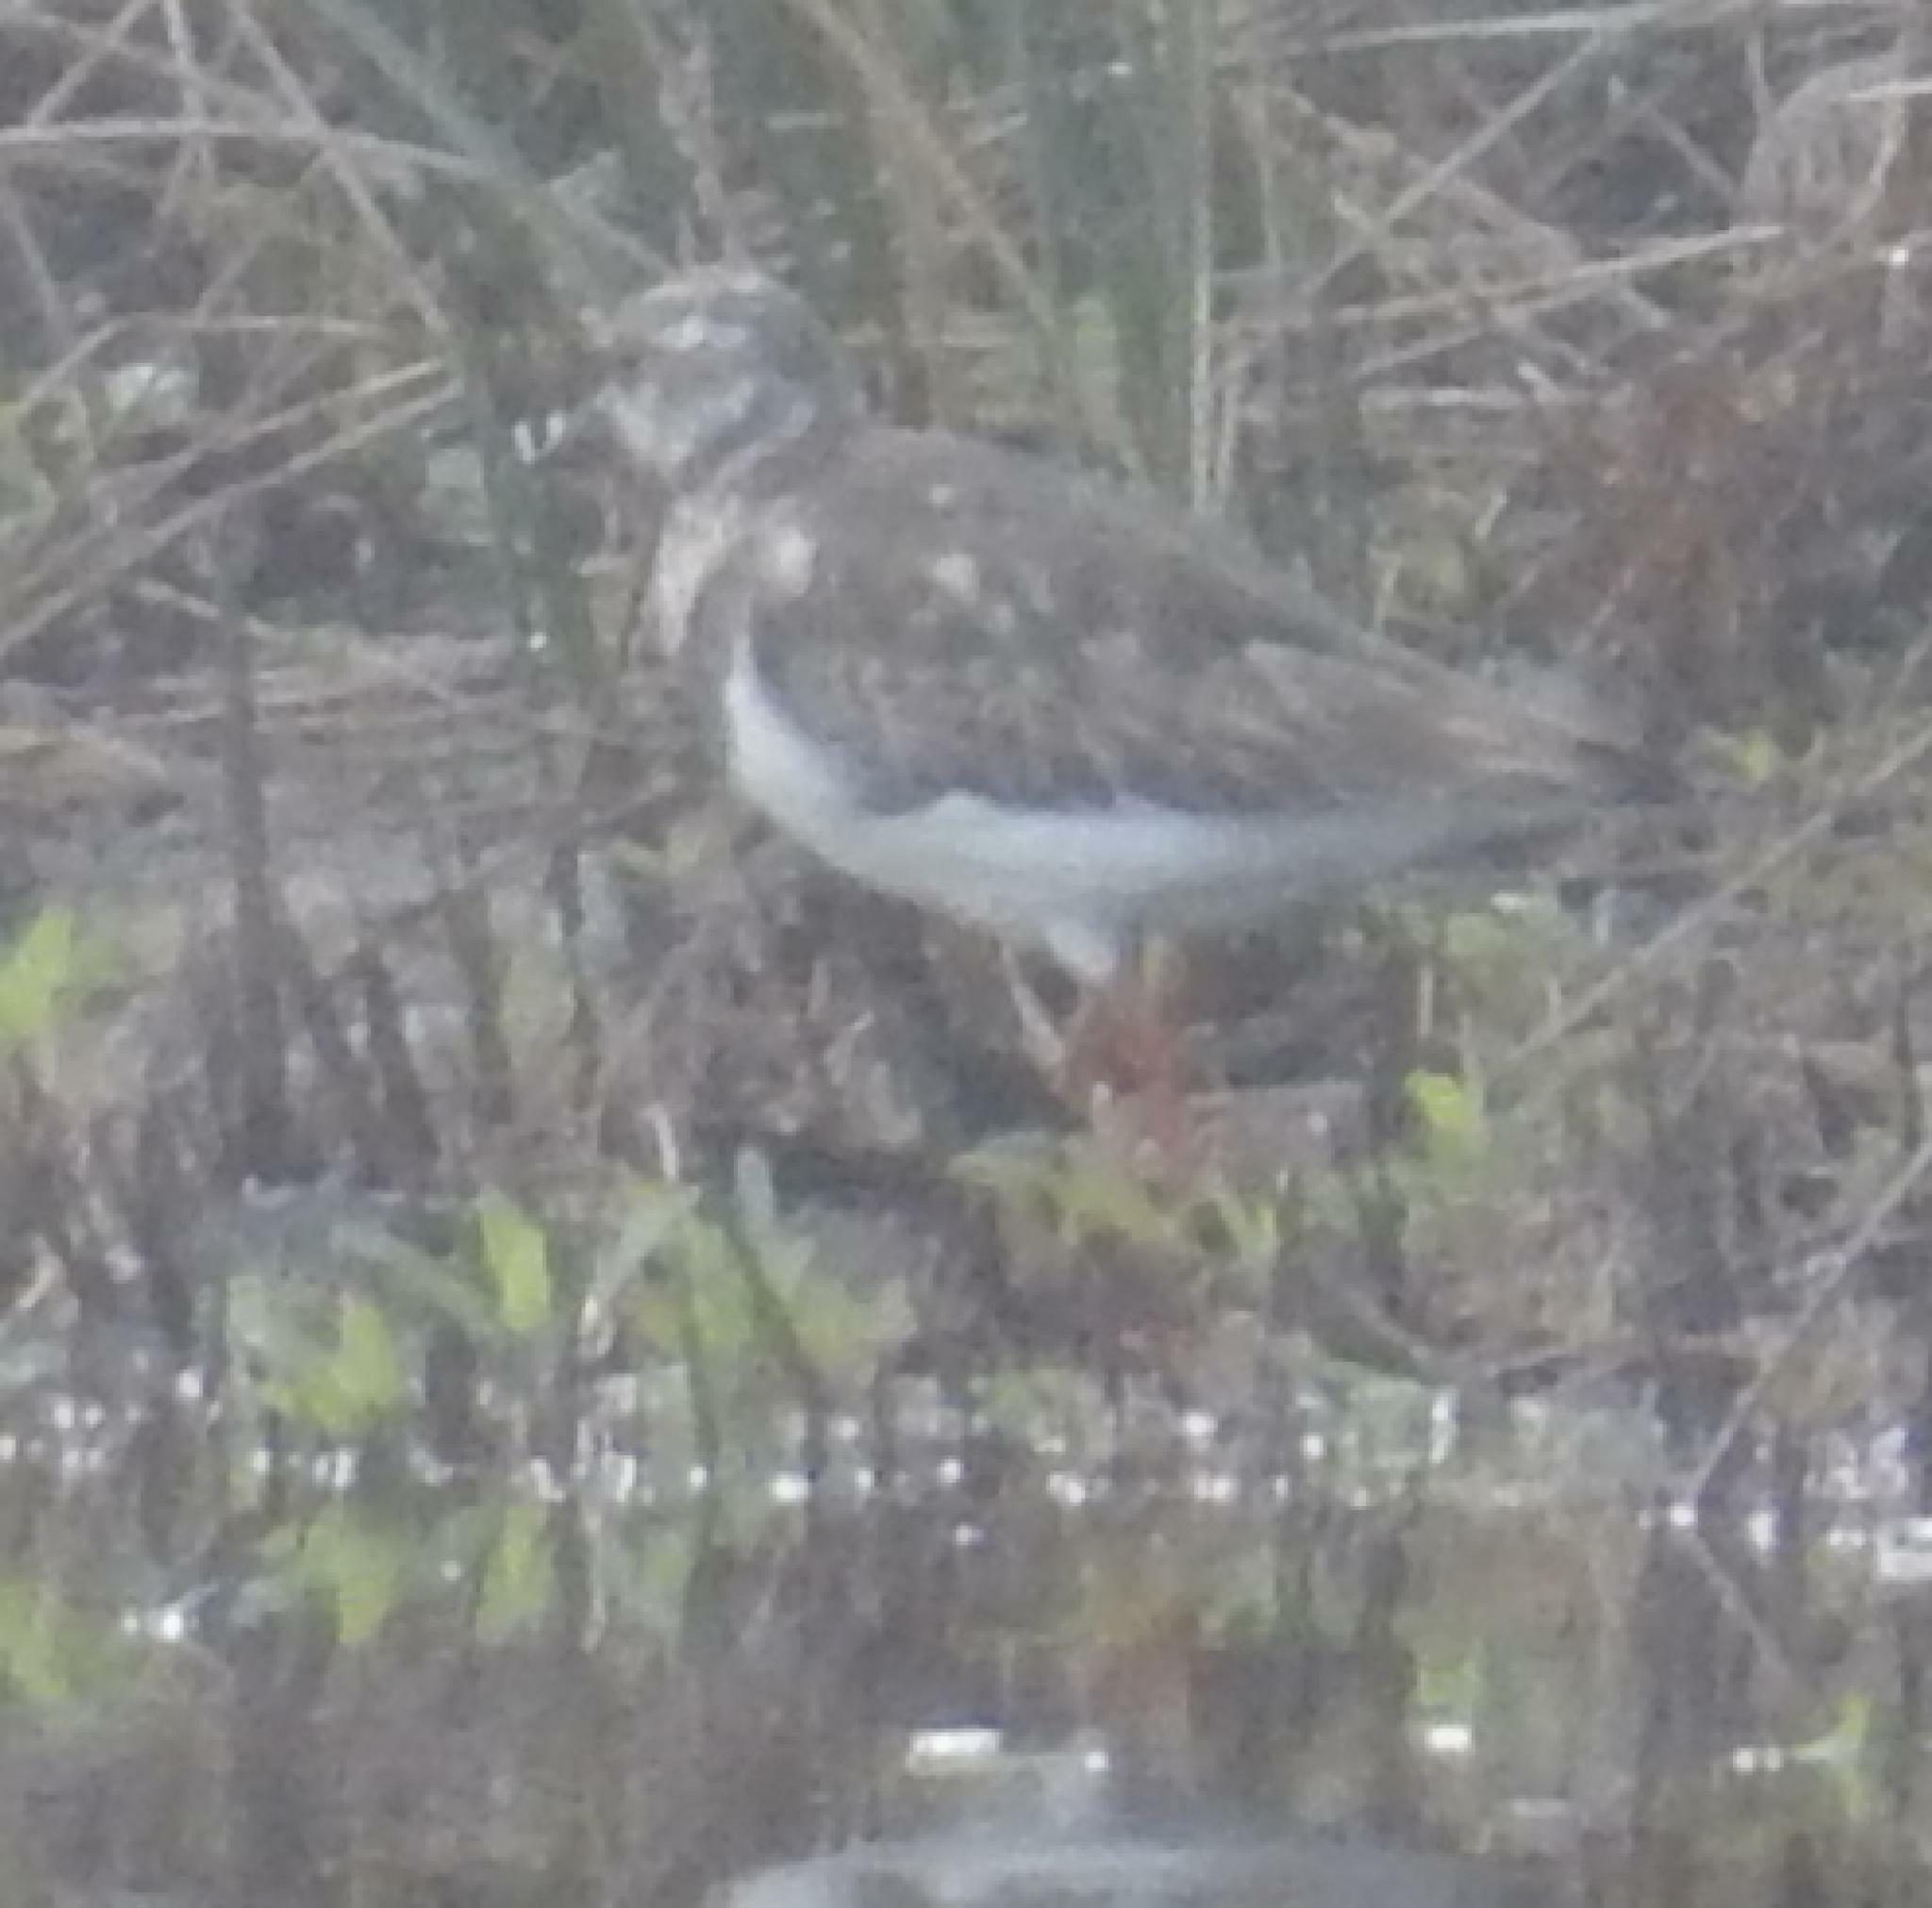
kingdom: Animalia
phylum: Chordata
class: Aves
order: Charadriiformes
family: Scolopacidae
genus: Arenaria
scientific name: Arenaria interpres
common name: Ruddy turnstone
